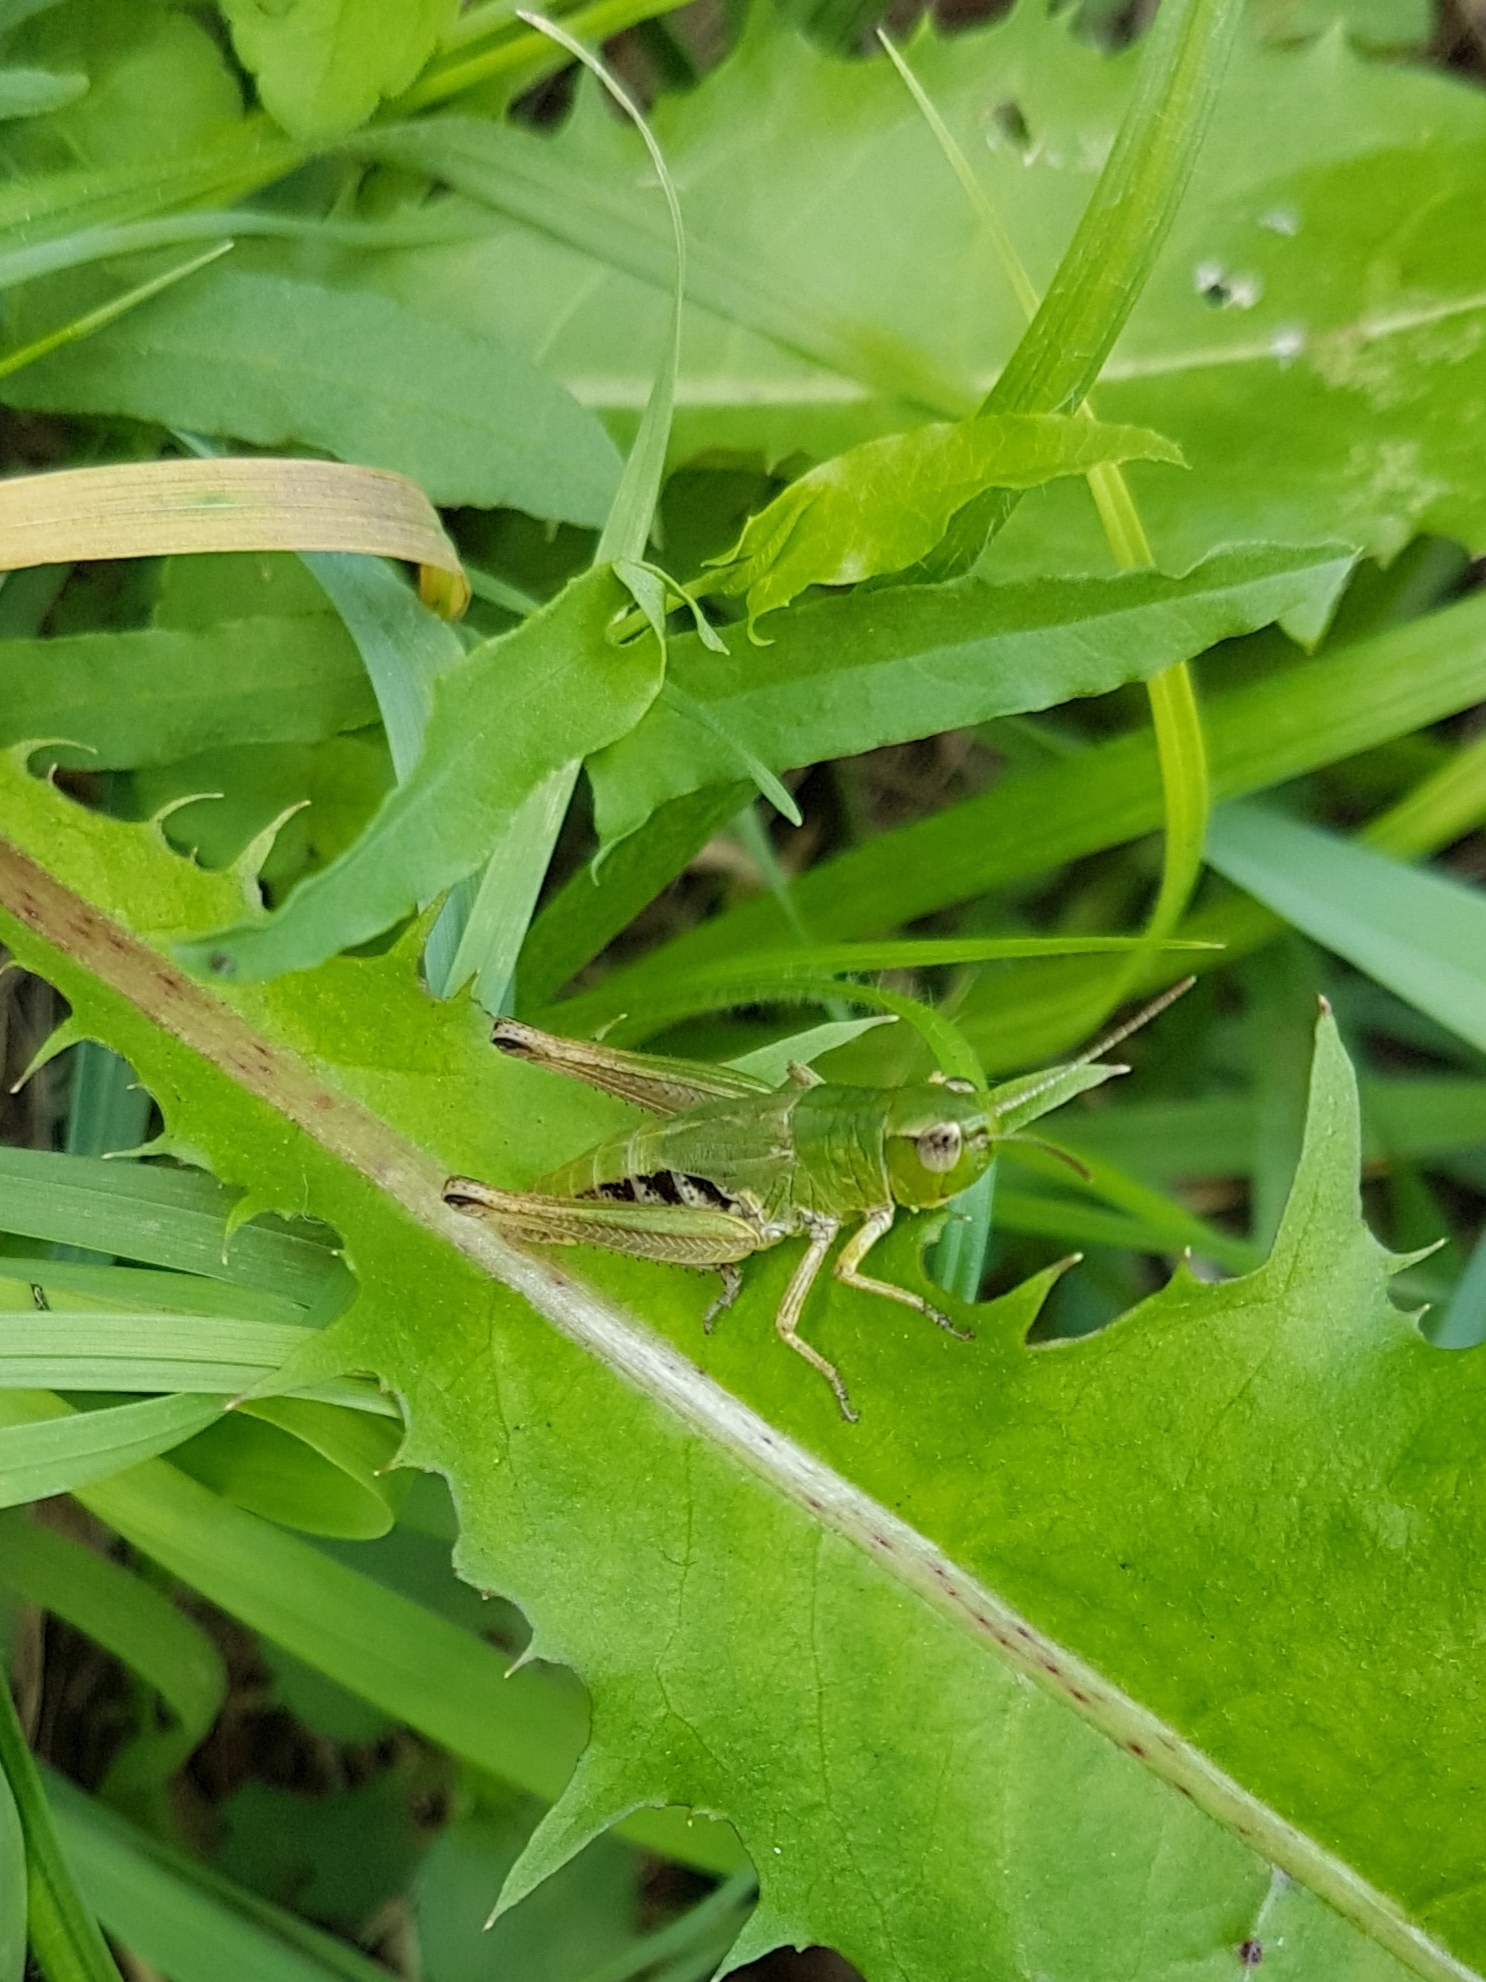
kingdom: Animalia
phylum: Arthropoda
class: Insecta
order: Orthoptera
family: Acrididae
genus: Pseudochorthippus
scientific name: Pseudochorthippus parallelus
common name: Meadow grasshopper
